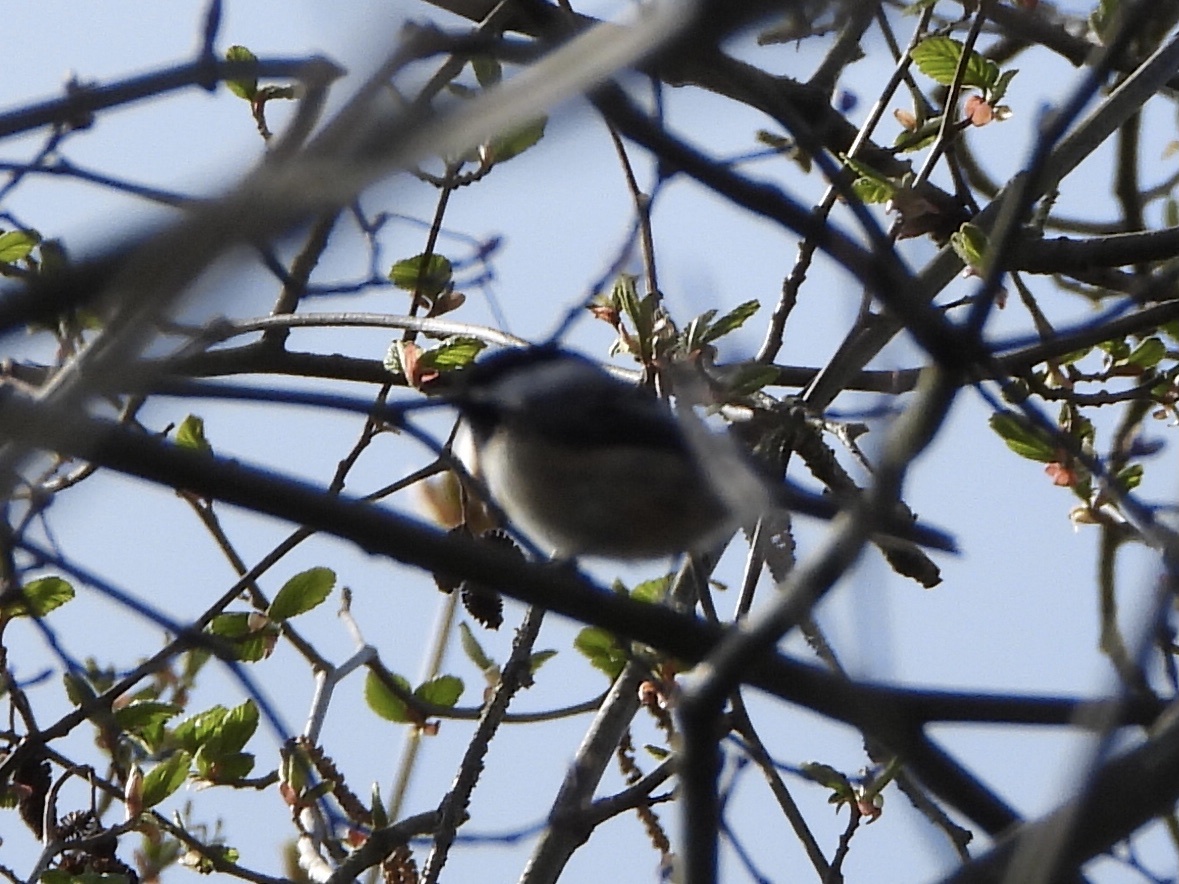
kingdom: Animalia
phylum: Chordata
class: Aves
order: Passeriformes
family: Paridae
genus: Poecile
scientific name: Poecile atricapillus
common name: Black-capped chickadee
